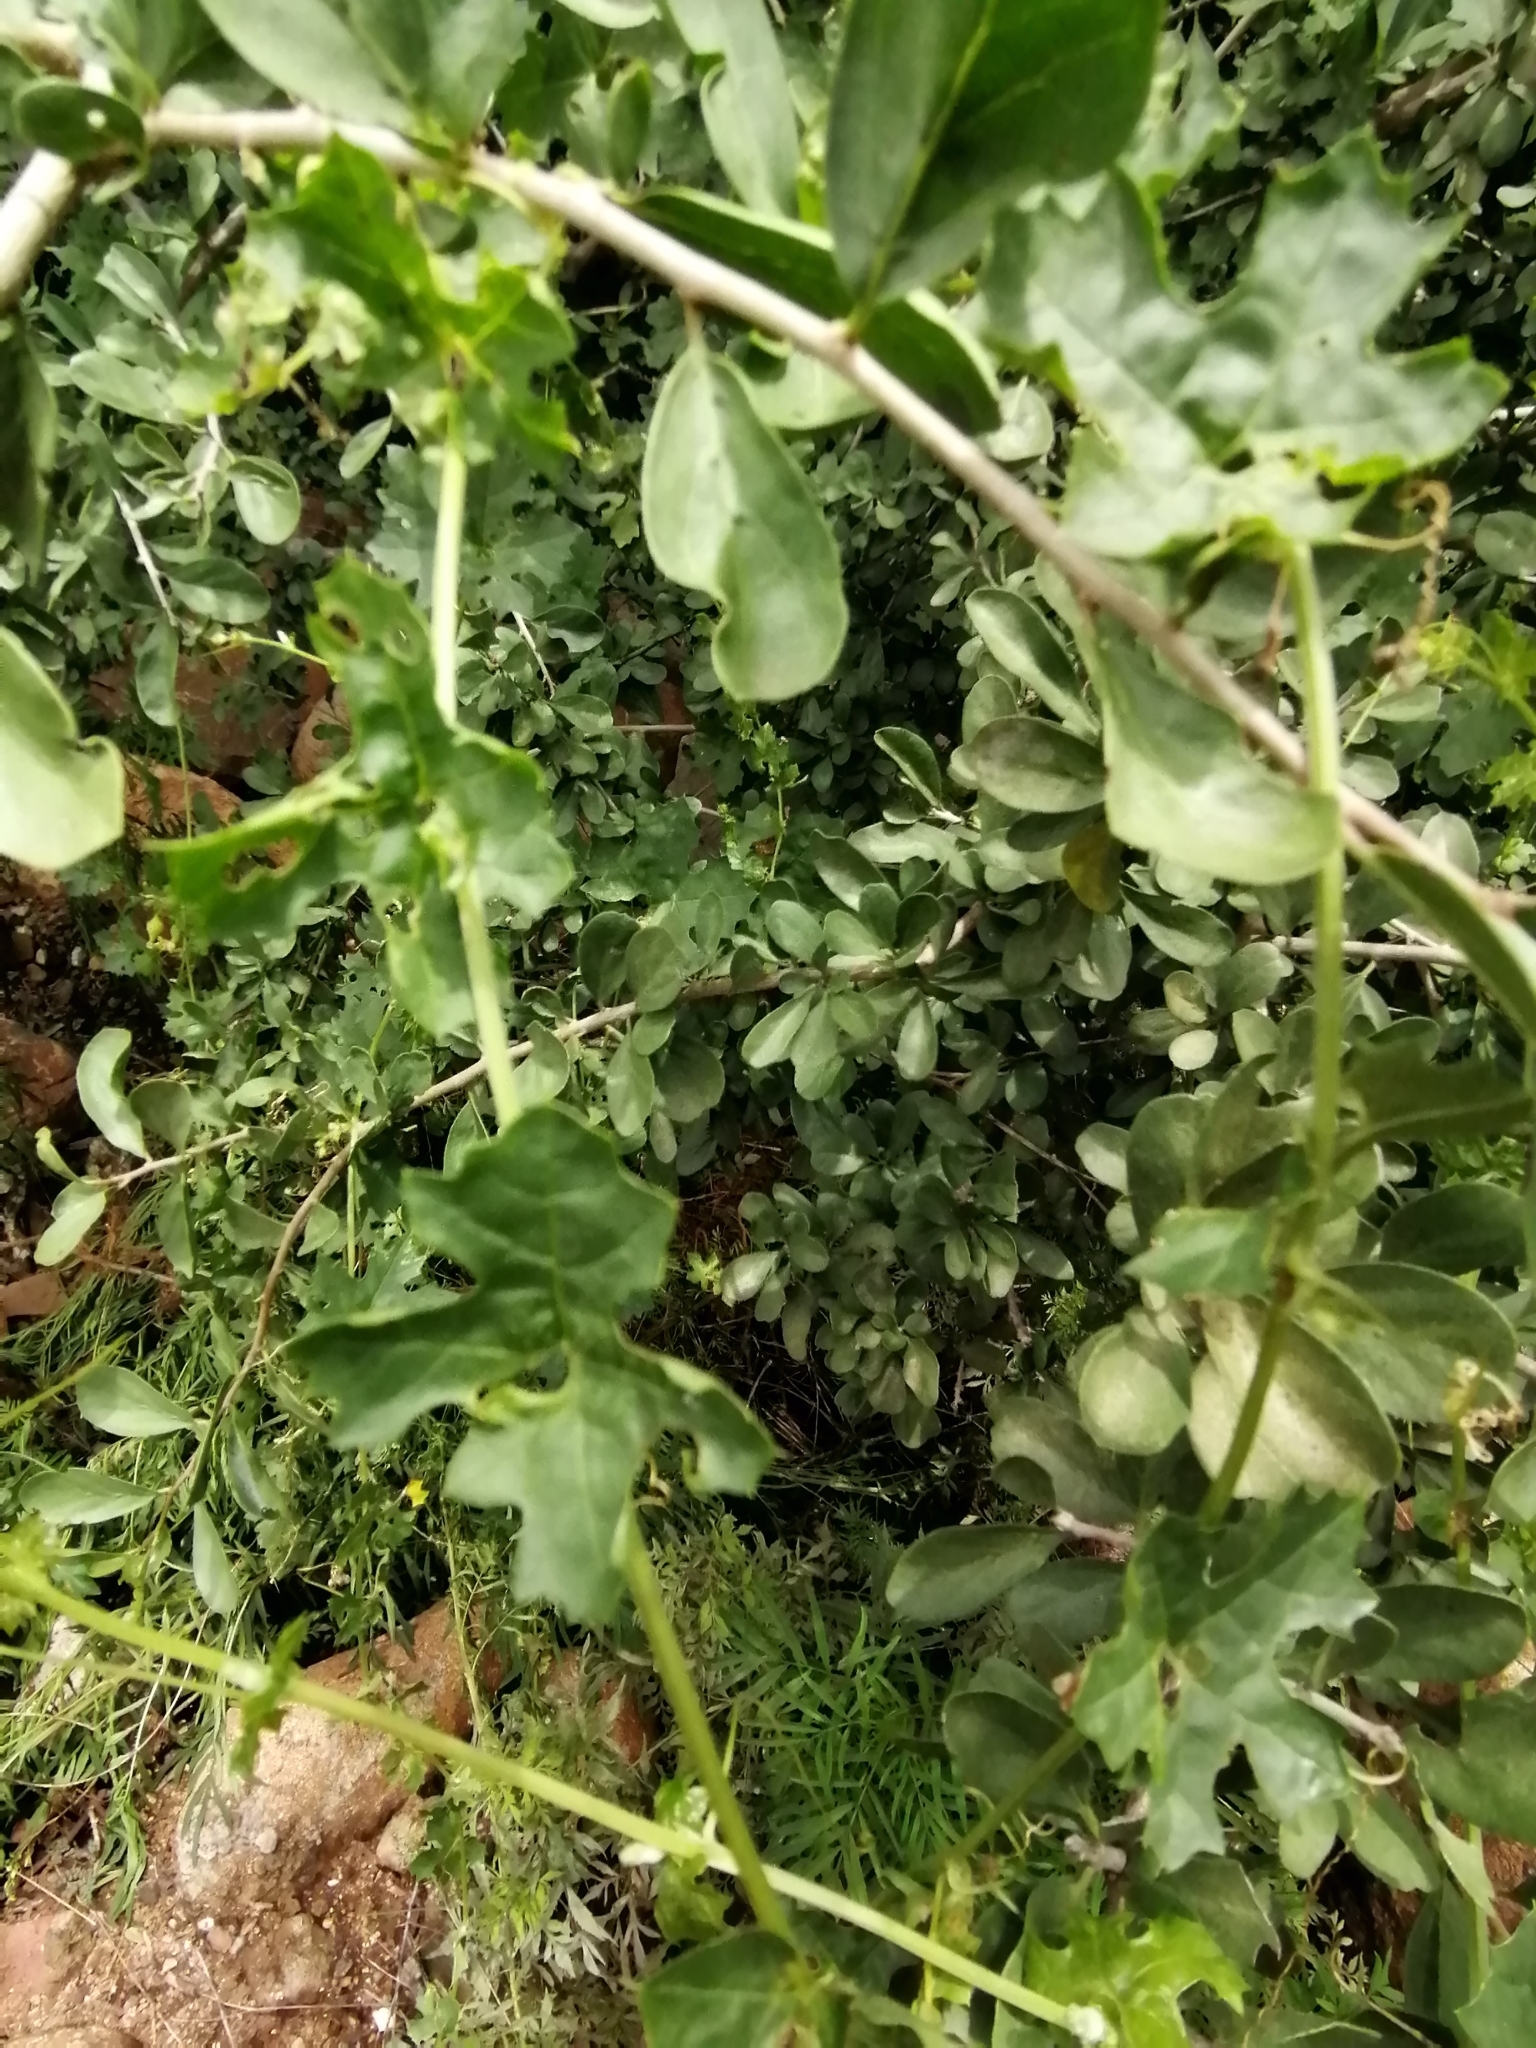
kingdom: Plantae
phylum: Tracheophyta
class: Magnoliopsida
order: Cucurbitales
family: Cucurbitaceae
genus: Momordica
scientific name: Momordica balsamina
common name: Southern balsampear
